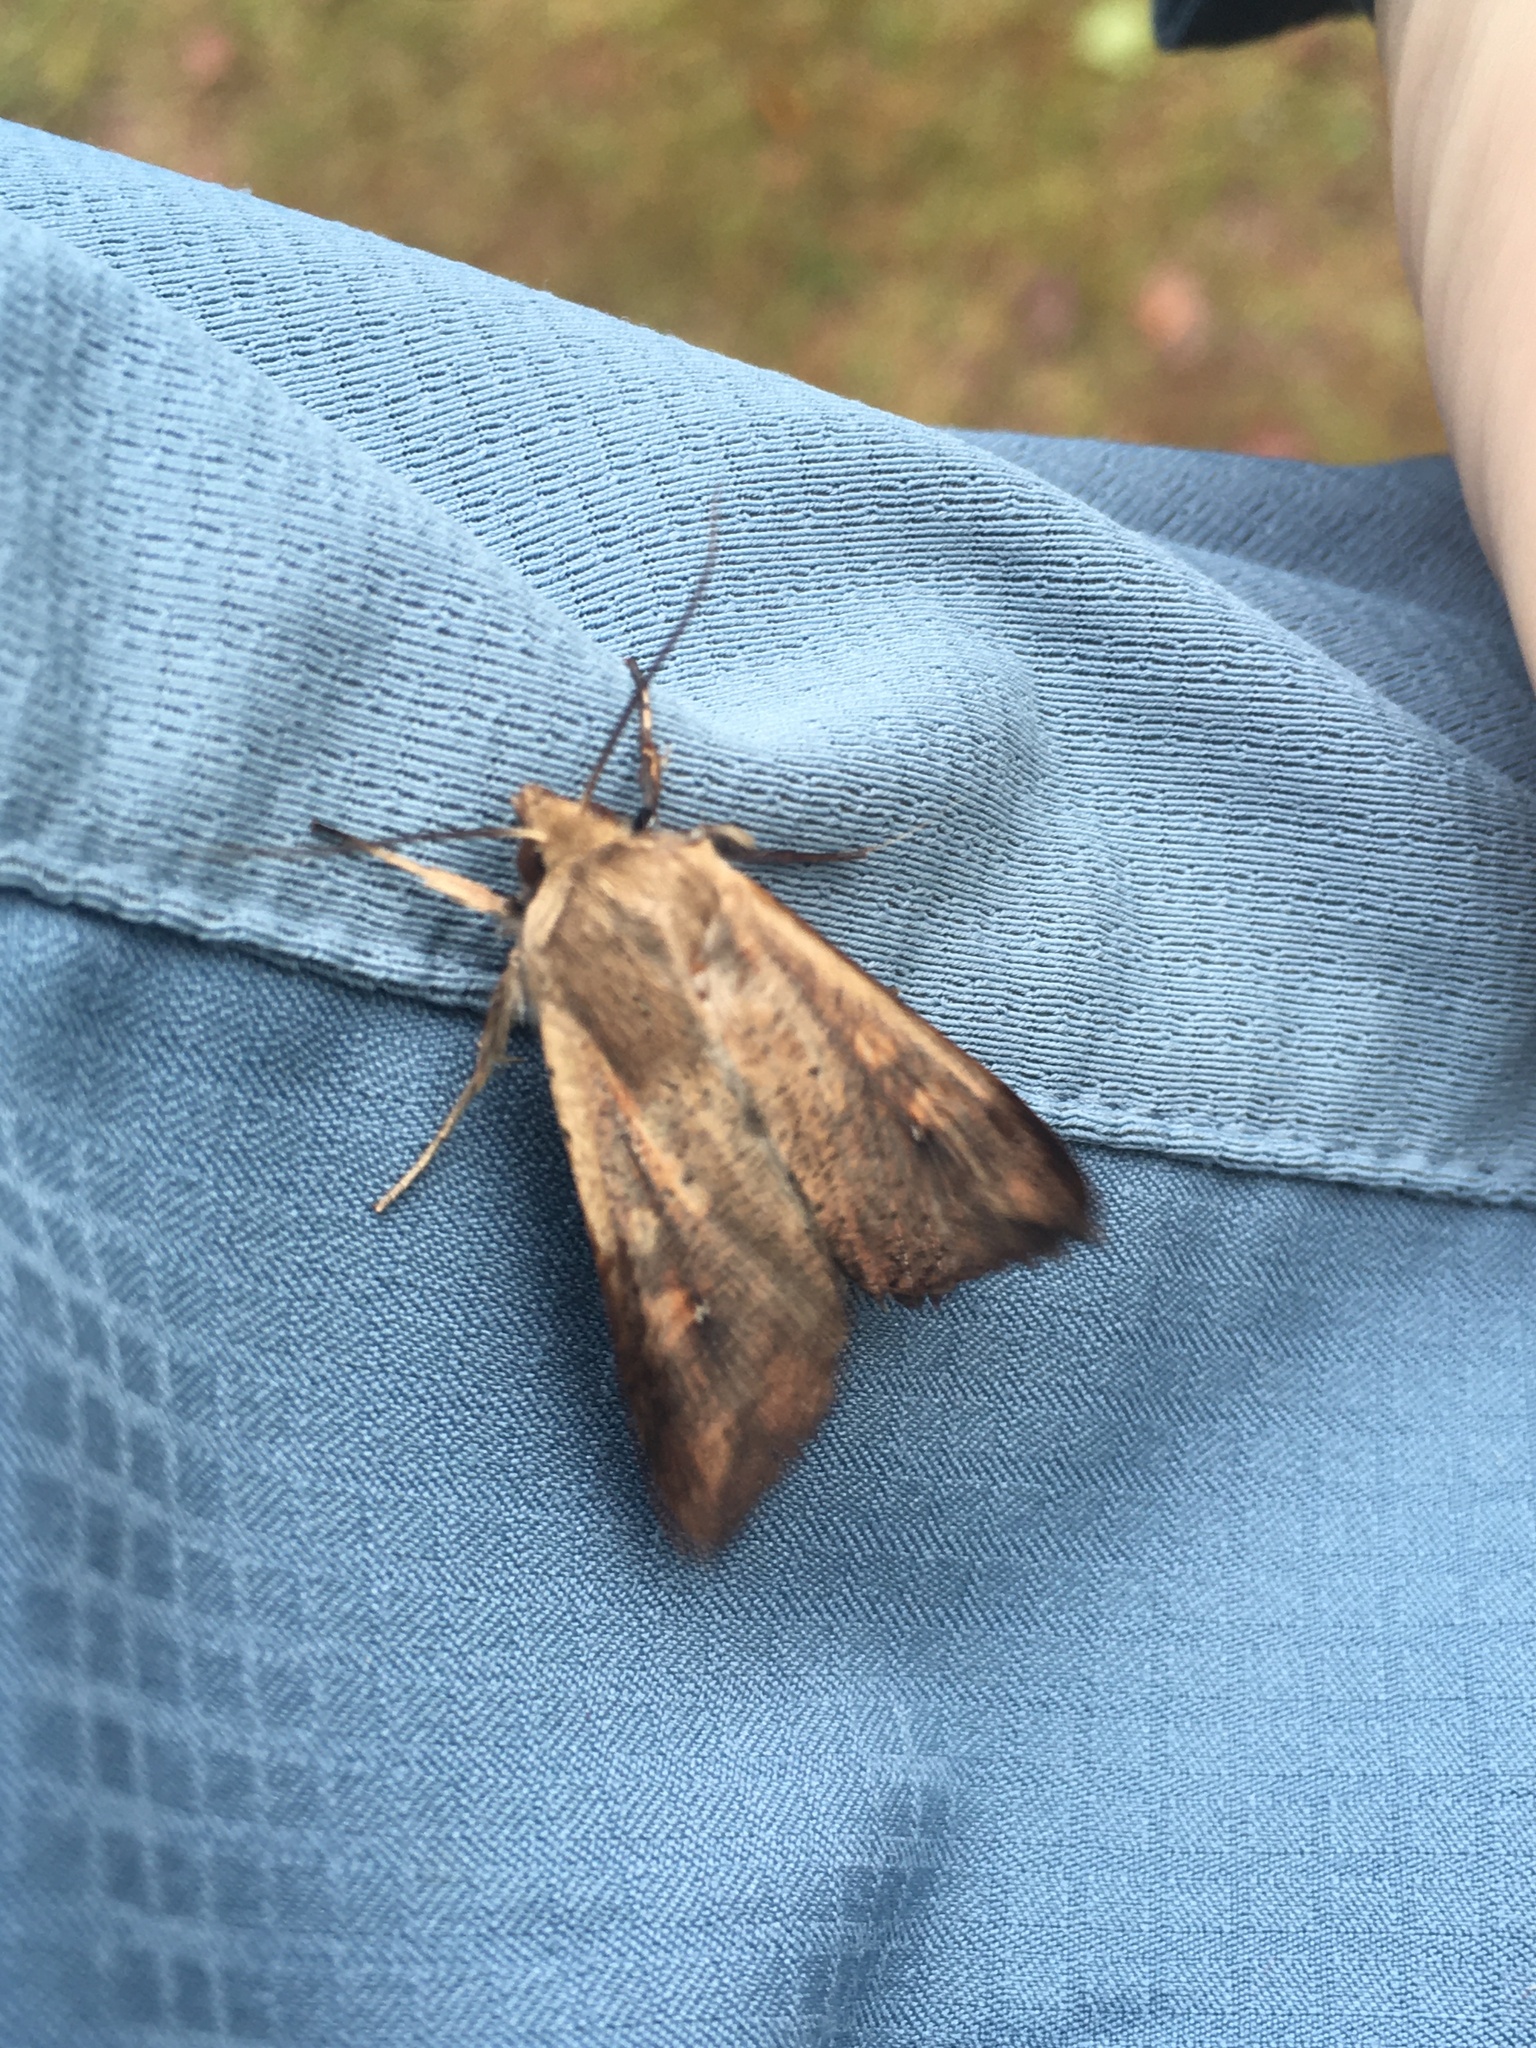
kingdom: Animalia
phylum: Arthropoda
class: Insecta
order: Lepidoptera
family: Noctuidae
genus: Mythimna
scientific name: Mythimna unipuncta
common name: White-speck
